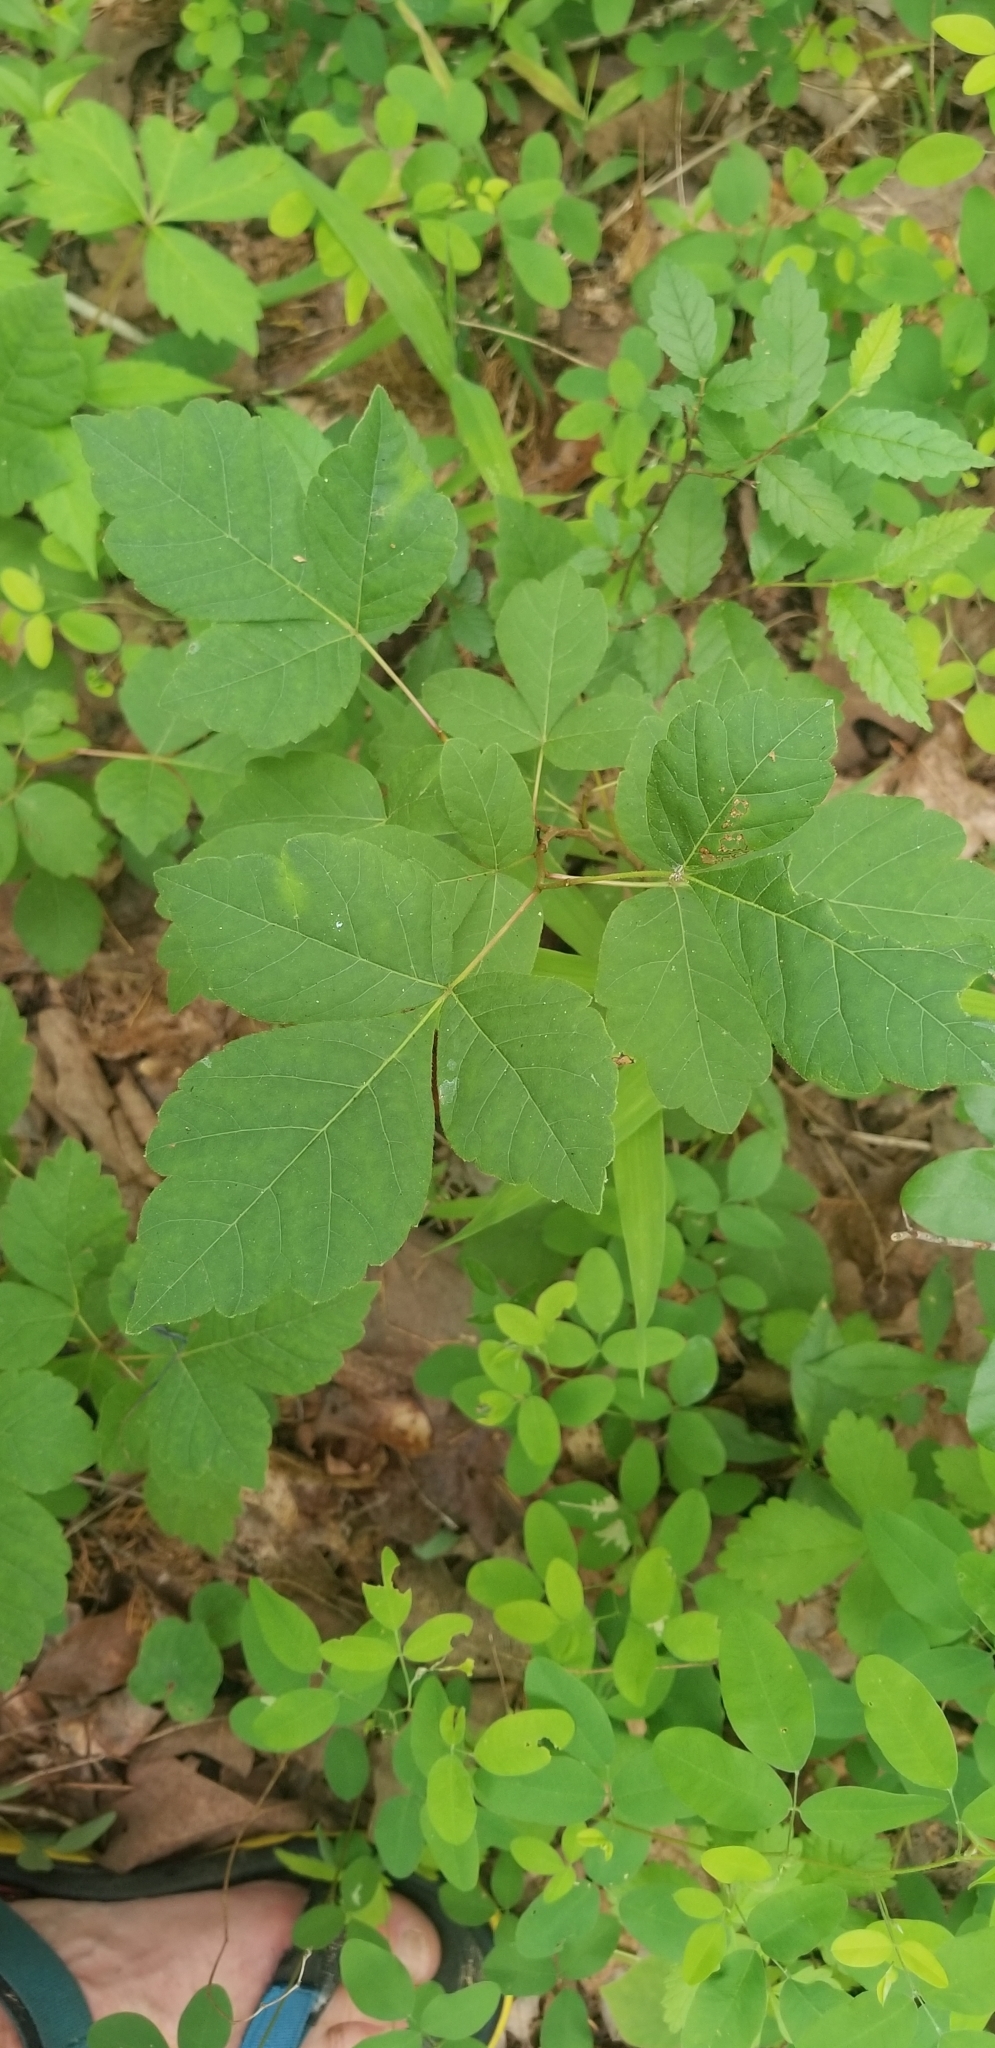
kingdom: Plantae
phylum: Tracheophyta
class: Magnoliopsida
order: Sapindales
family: Anacardiaceae
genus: Rhus
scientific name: Rhus aromatica
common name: Aromatic sumac
